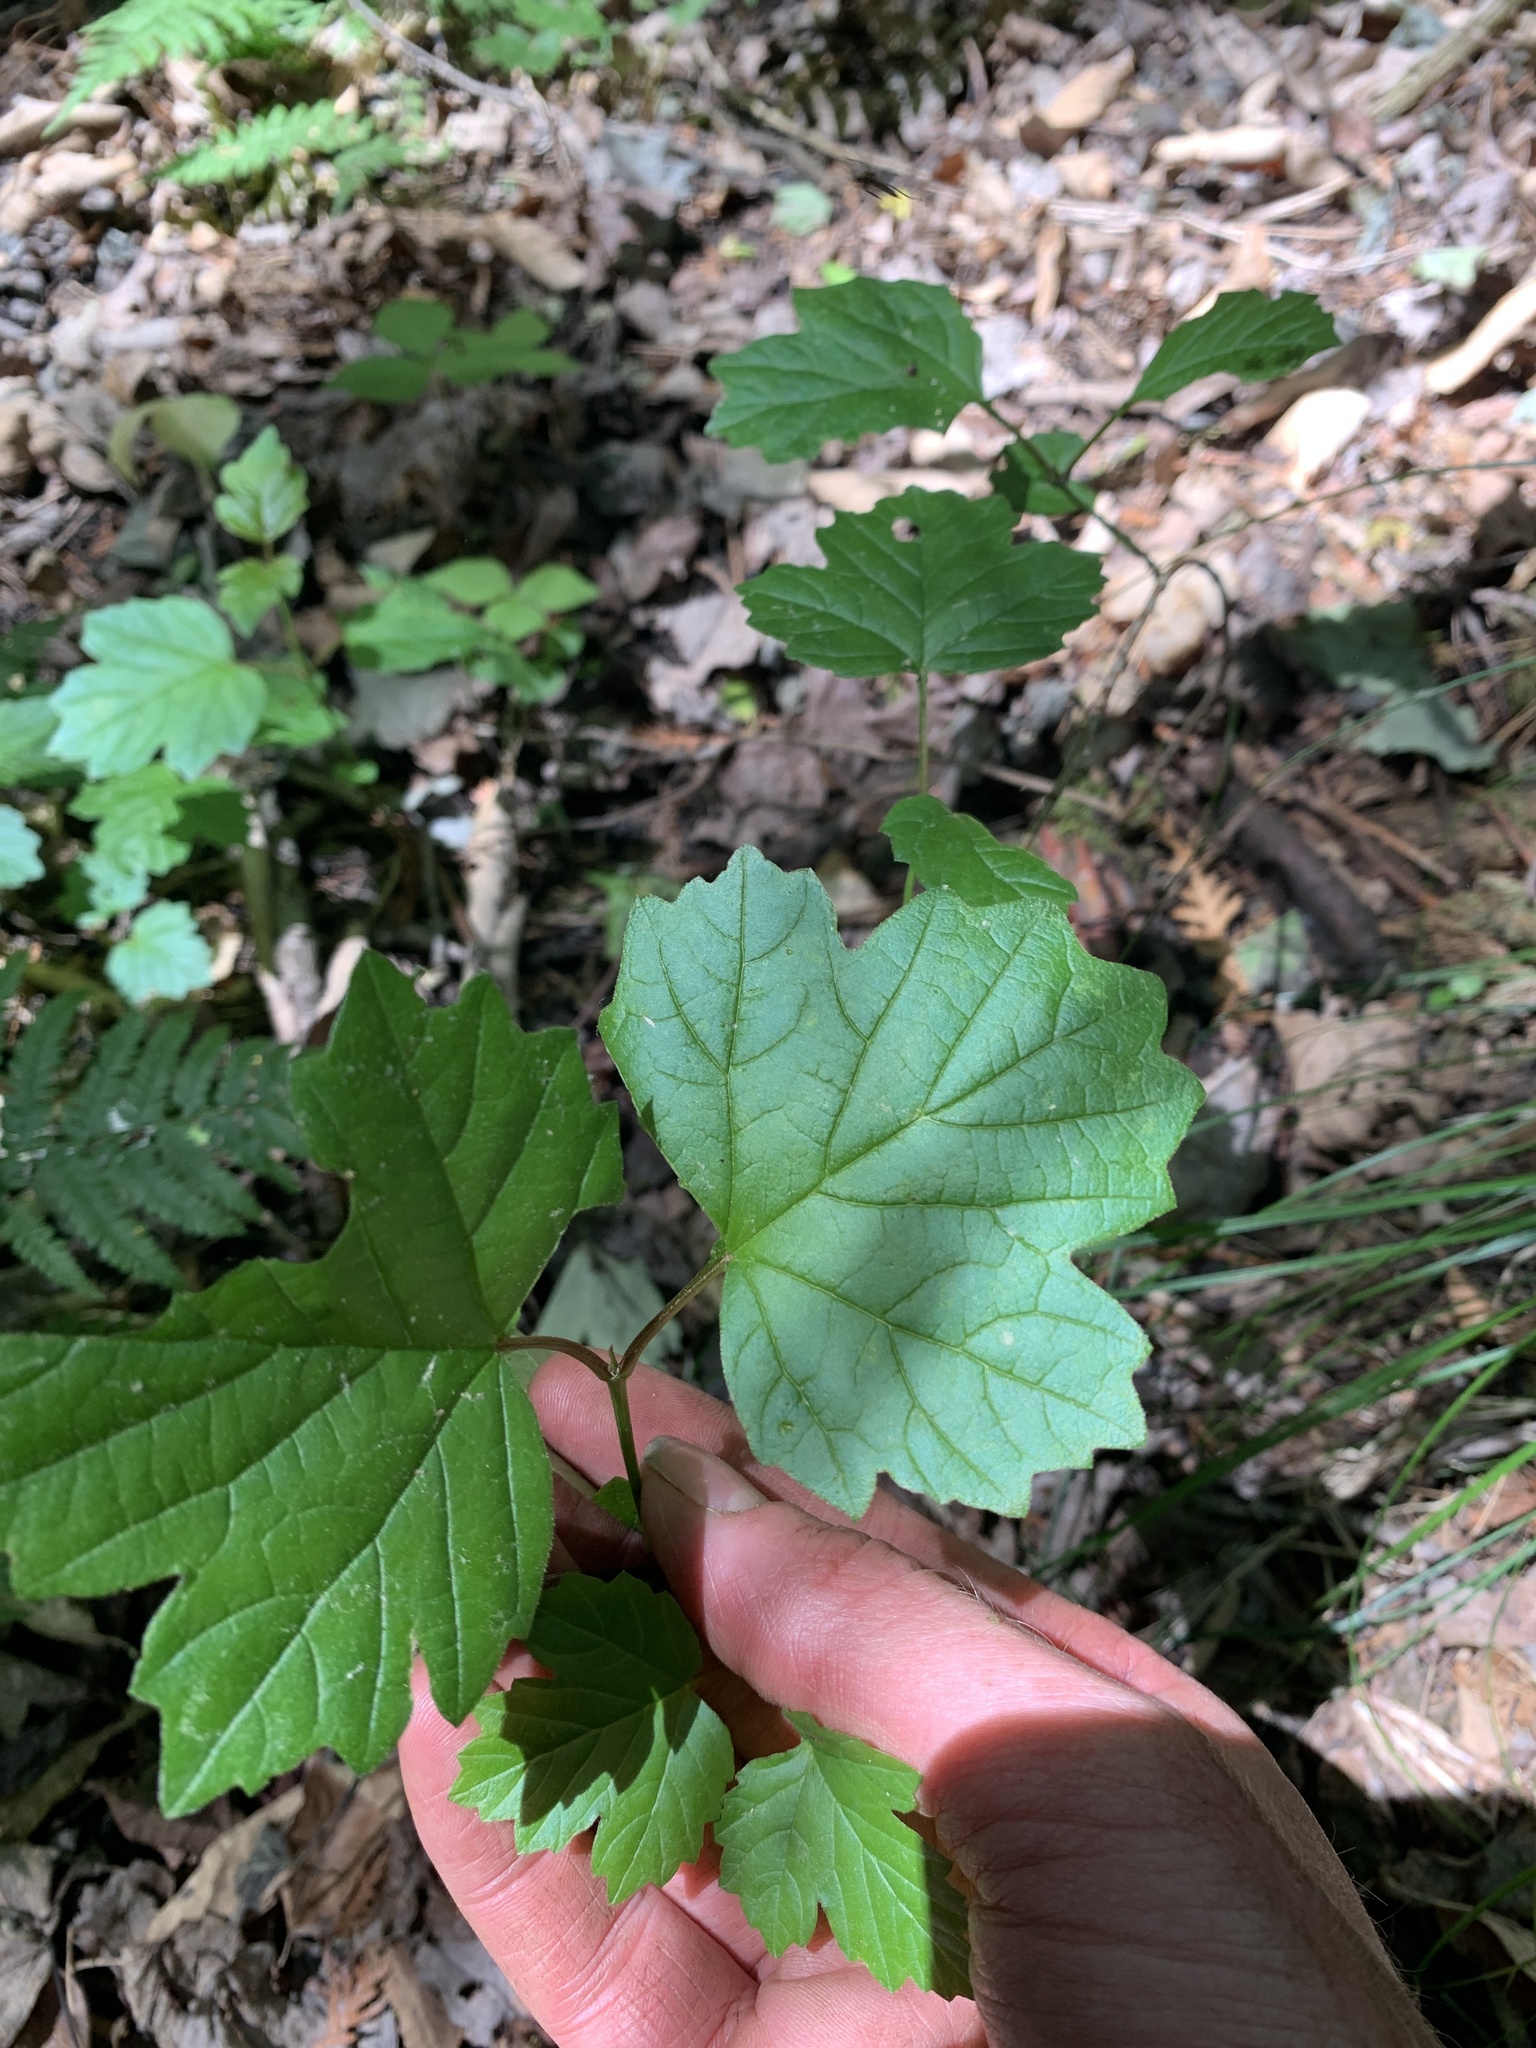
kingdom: Plantae
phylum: Tracheophyta
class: Magnoliopsida
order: Dipsacales
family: Viburnaceae
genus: Viburnum
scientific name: Viburnum opulus
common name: Guelder-rose
